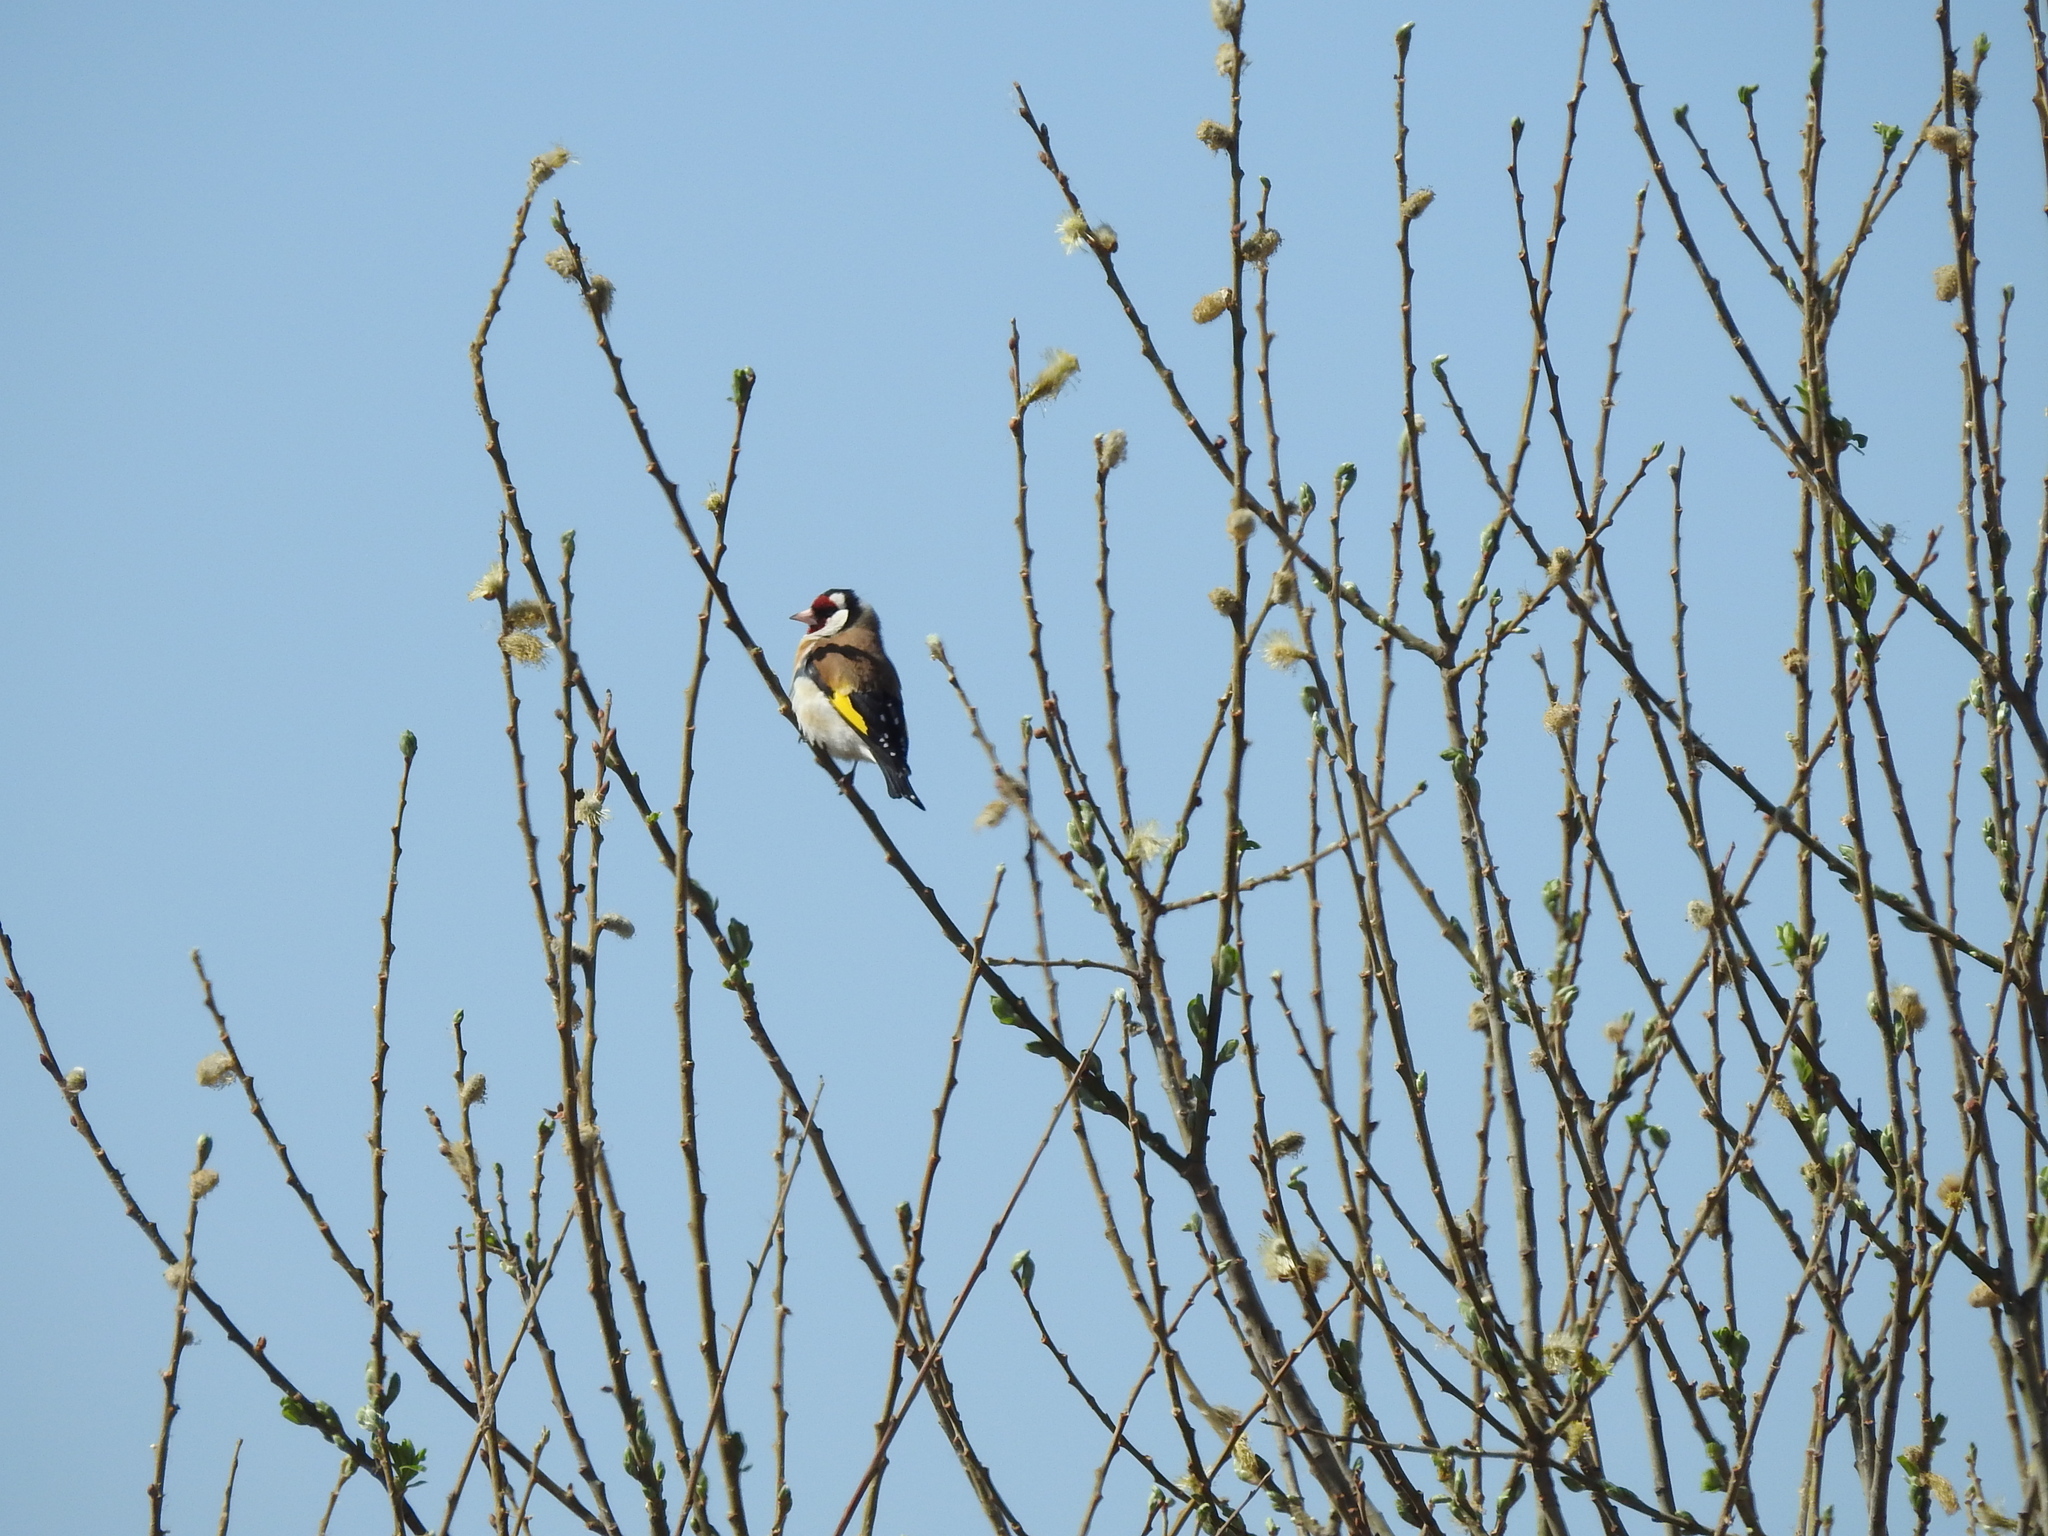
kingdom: Animalia
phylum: Chordata
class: Aves
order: Passeriformes
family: Fringillidae
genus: Carduelis
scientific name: Carduelis carduelis
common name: European goldfinch
